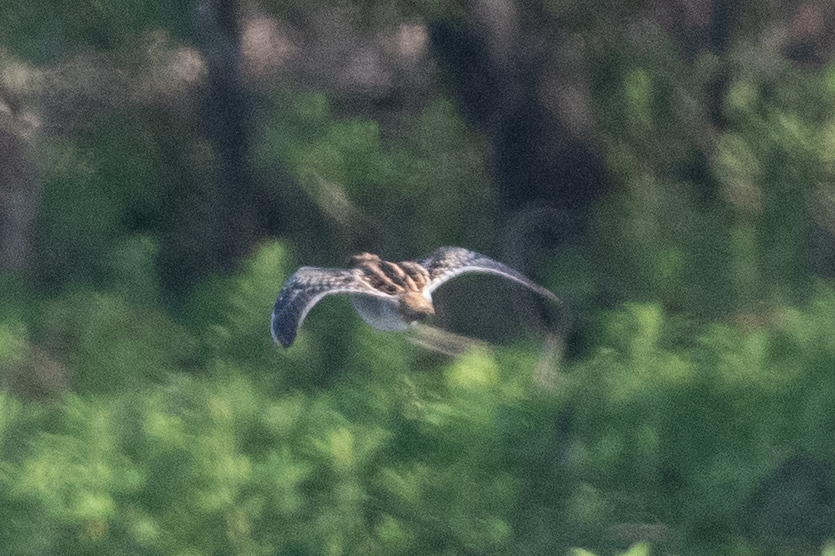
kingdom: Animalia
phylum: Chordata
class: Aves
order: Charadriiformes
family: Scolopacidae
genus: Gallinago
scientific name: Gallinago delicata
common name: Wilson's snipe
